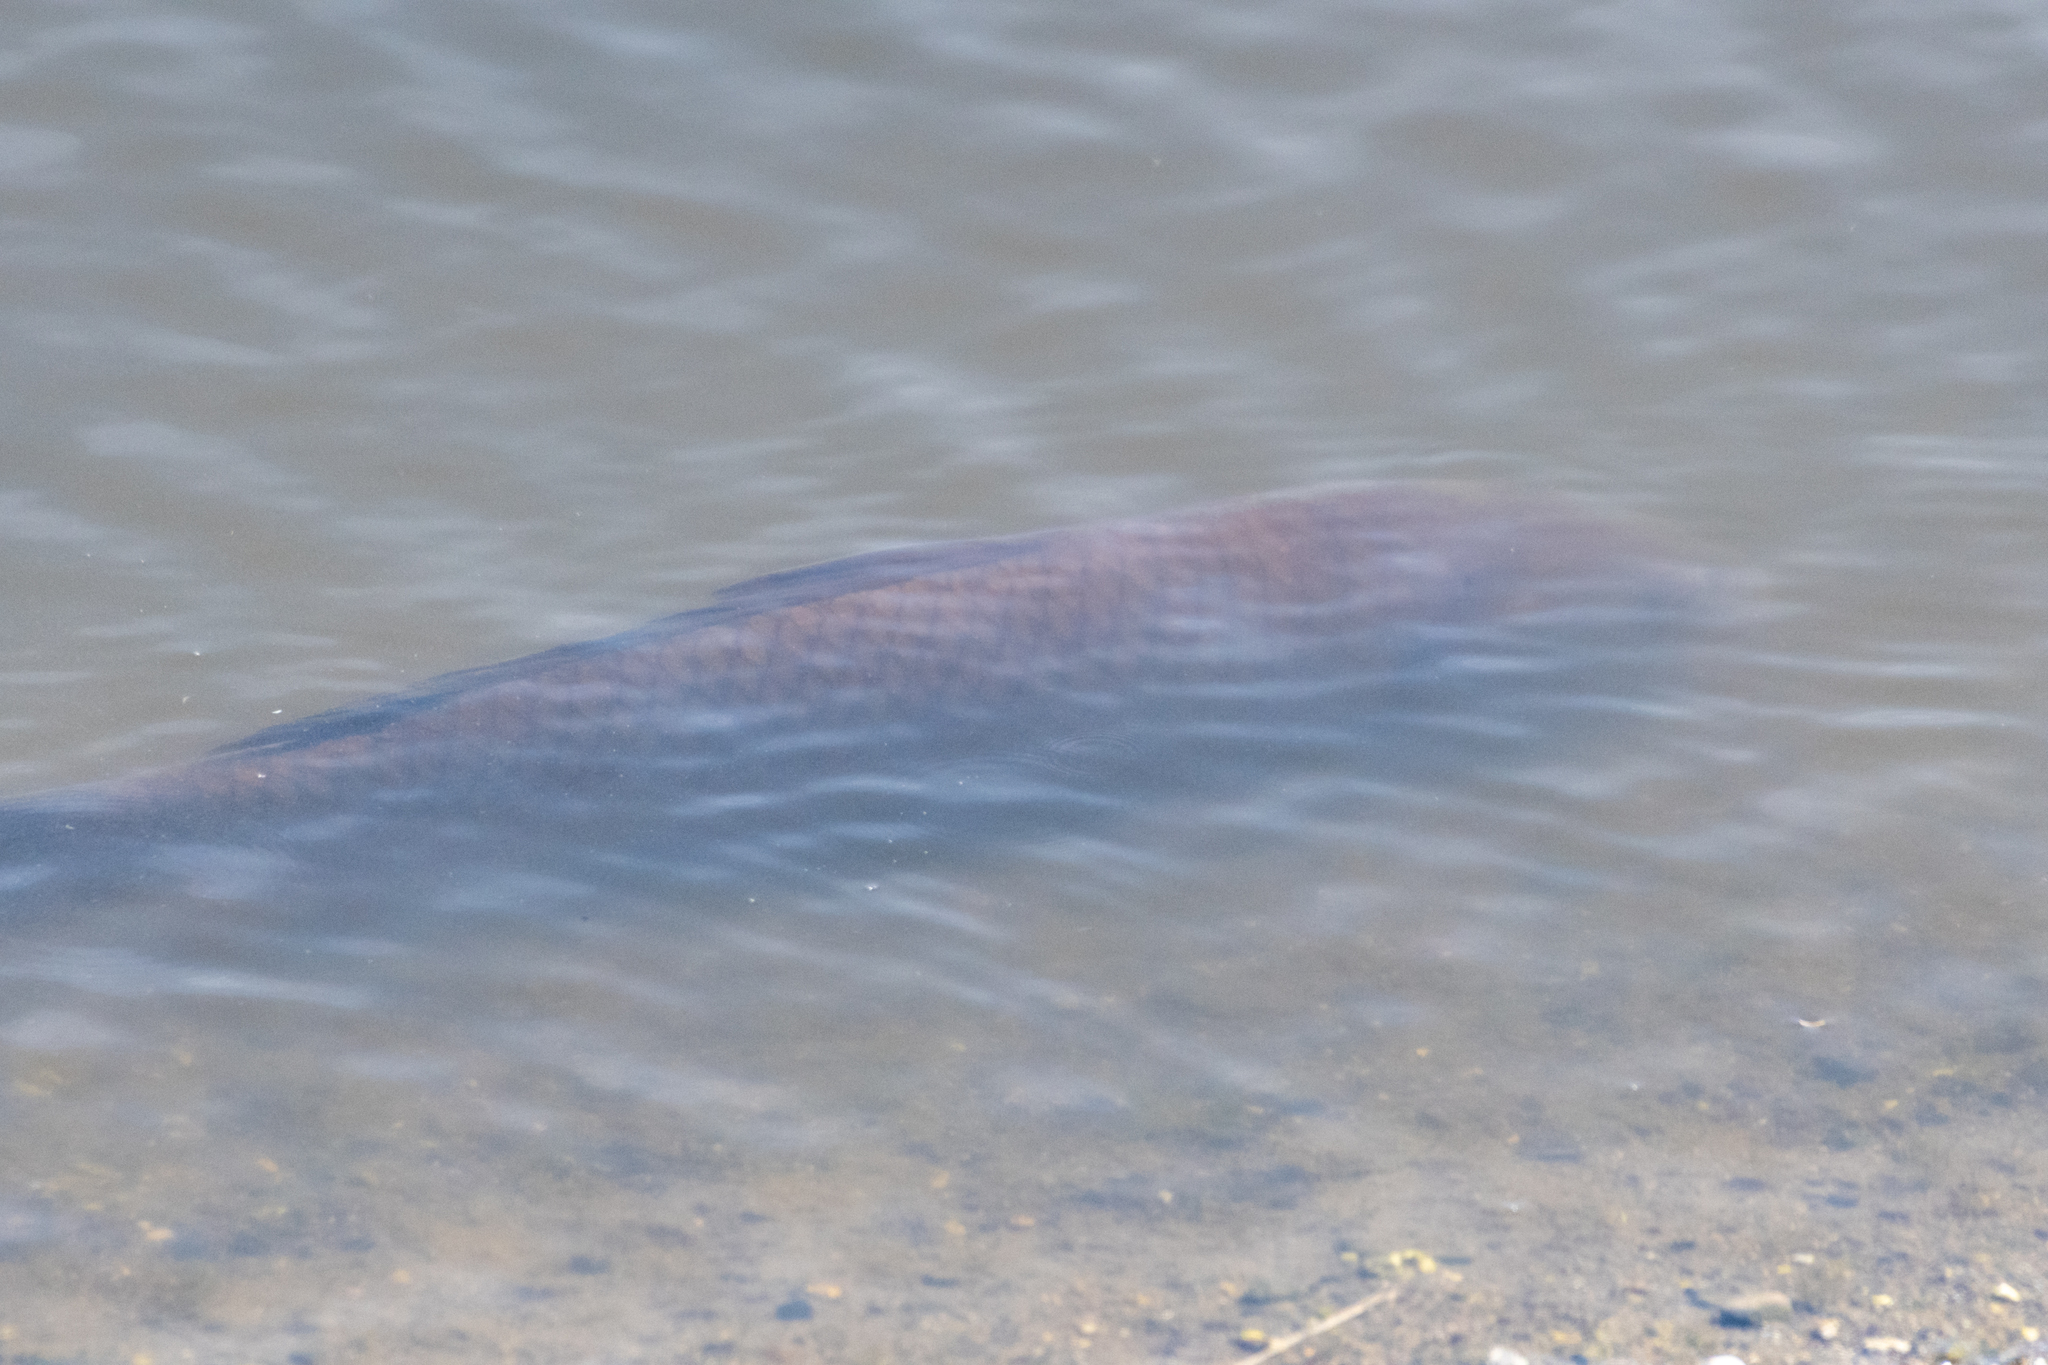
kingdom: Animalia
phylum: Chordata
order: Cypriniformes
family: Cyprinidae
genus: Cyprinus
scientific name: Cyprinus carpio
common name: Common carp
